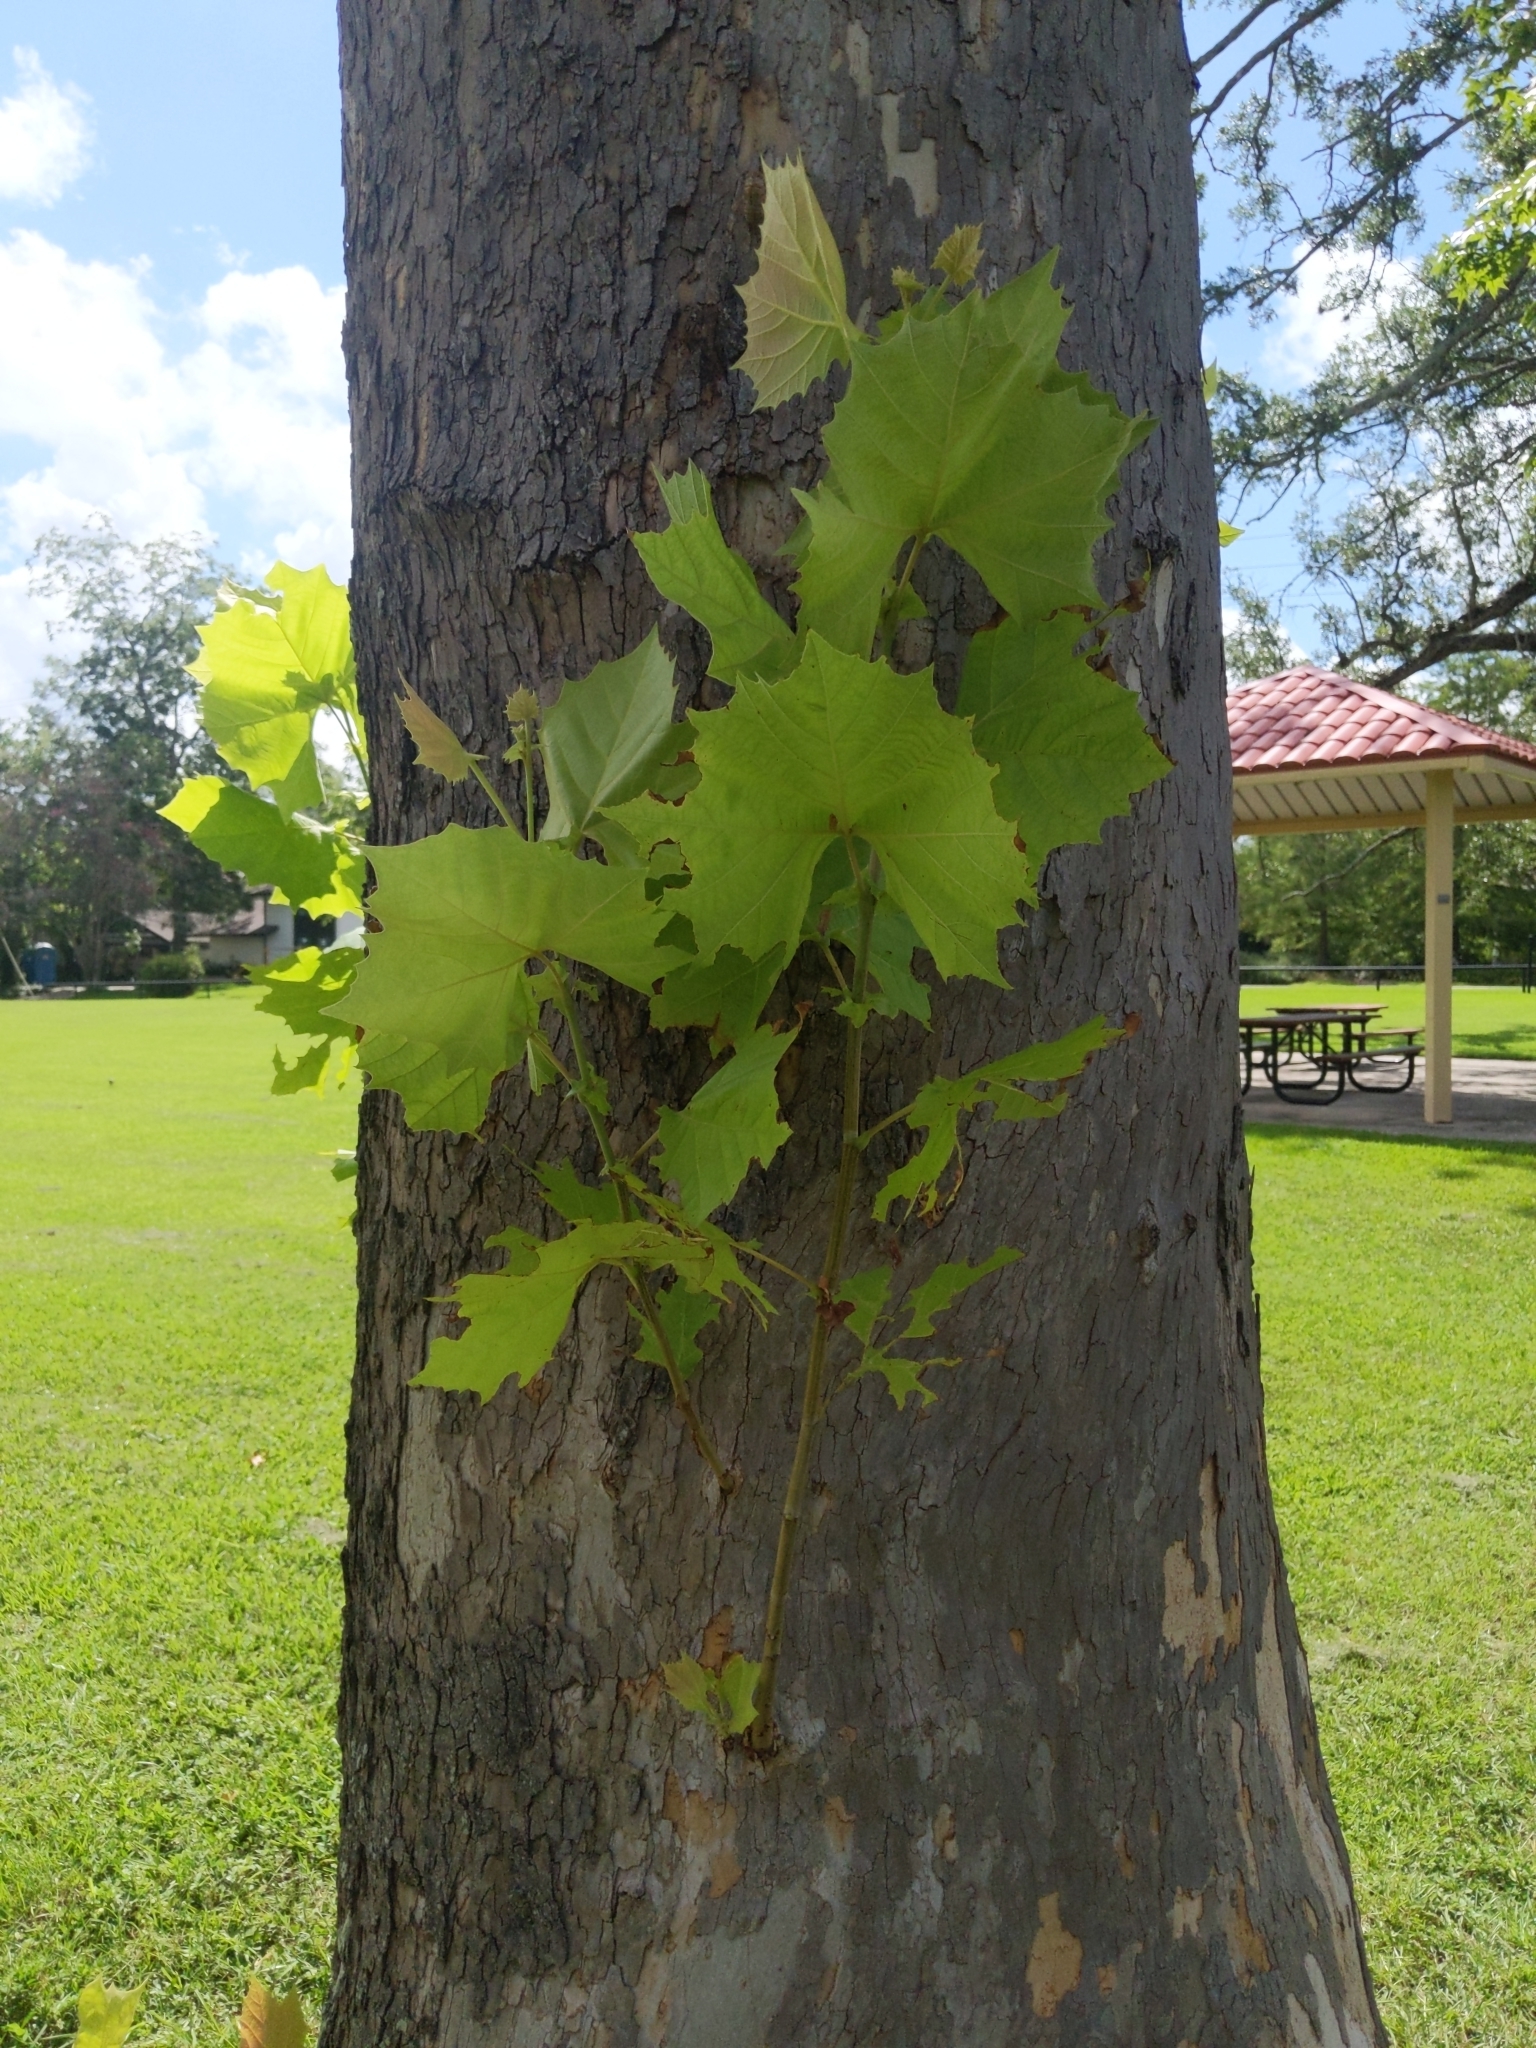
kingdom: Plantae
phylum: Tracheophyta
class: Magnoliopsida
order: Proteales
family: Platanaceae
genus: Platanus
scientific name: Platanus occidentalis
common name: American sycamore
